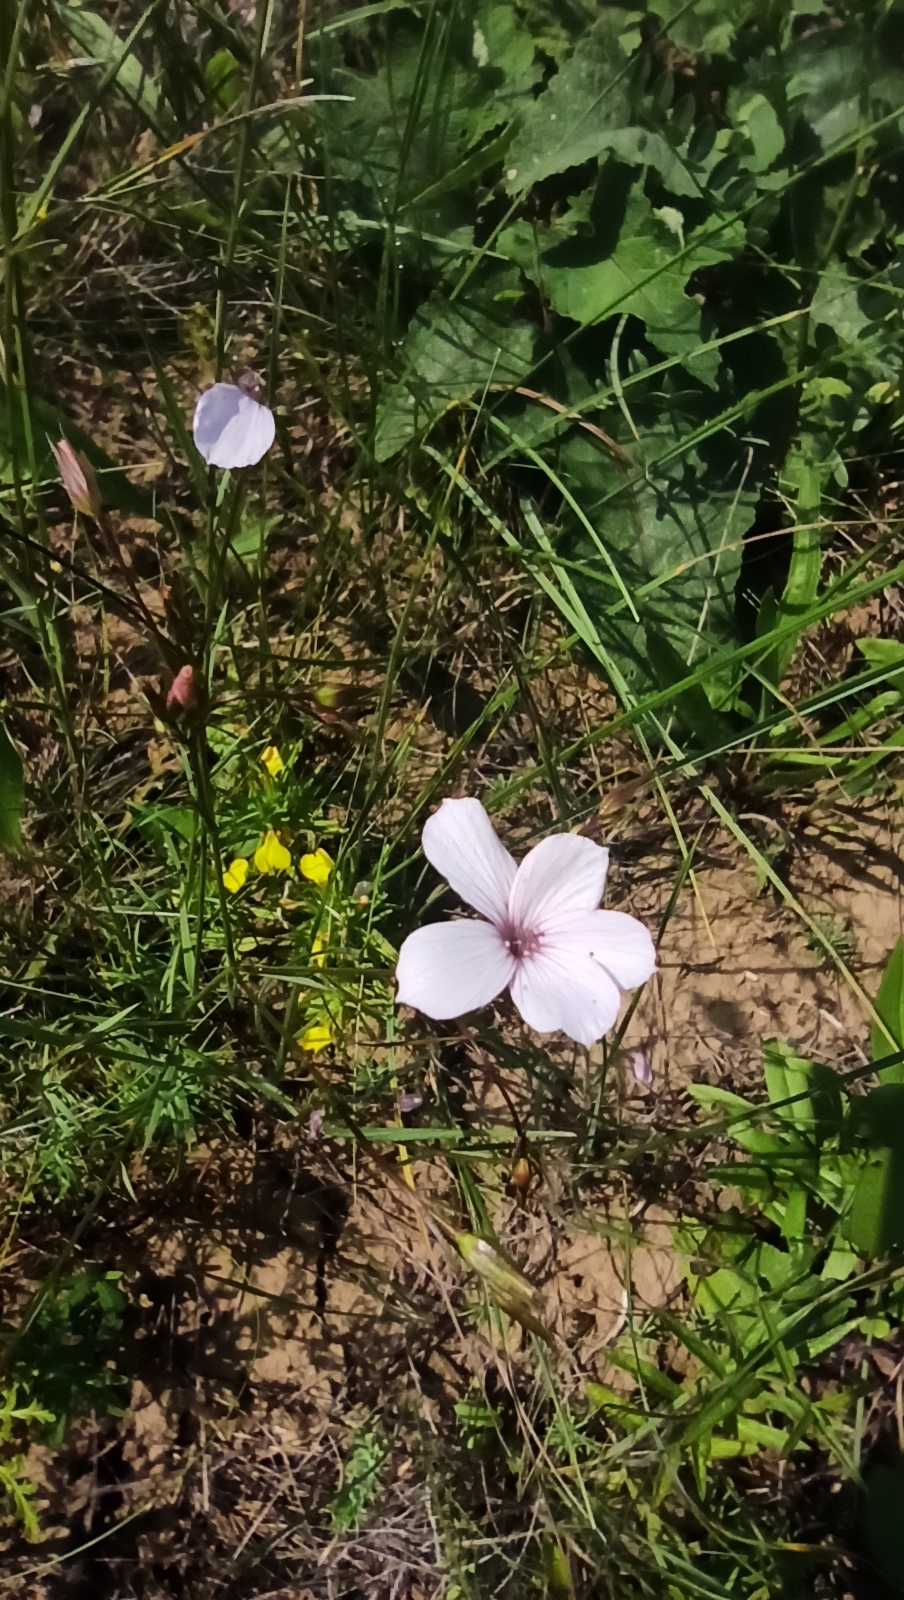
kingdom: Plantae
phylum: Tracheophyta
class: Magnoliopsida
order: Malpighiales
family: Linaceae
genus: Linum
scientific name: Linum tenuifolium
